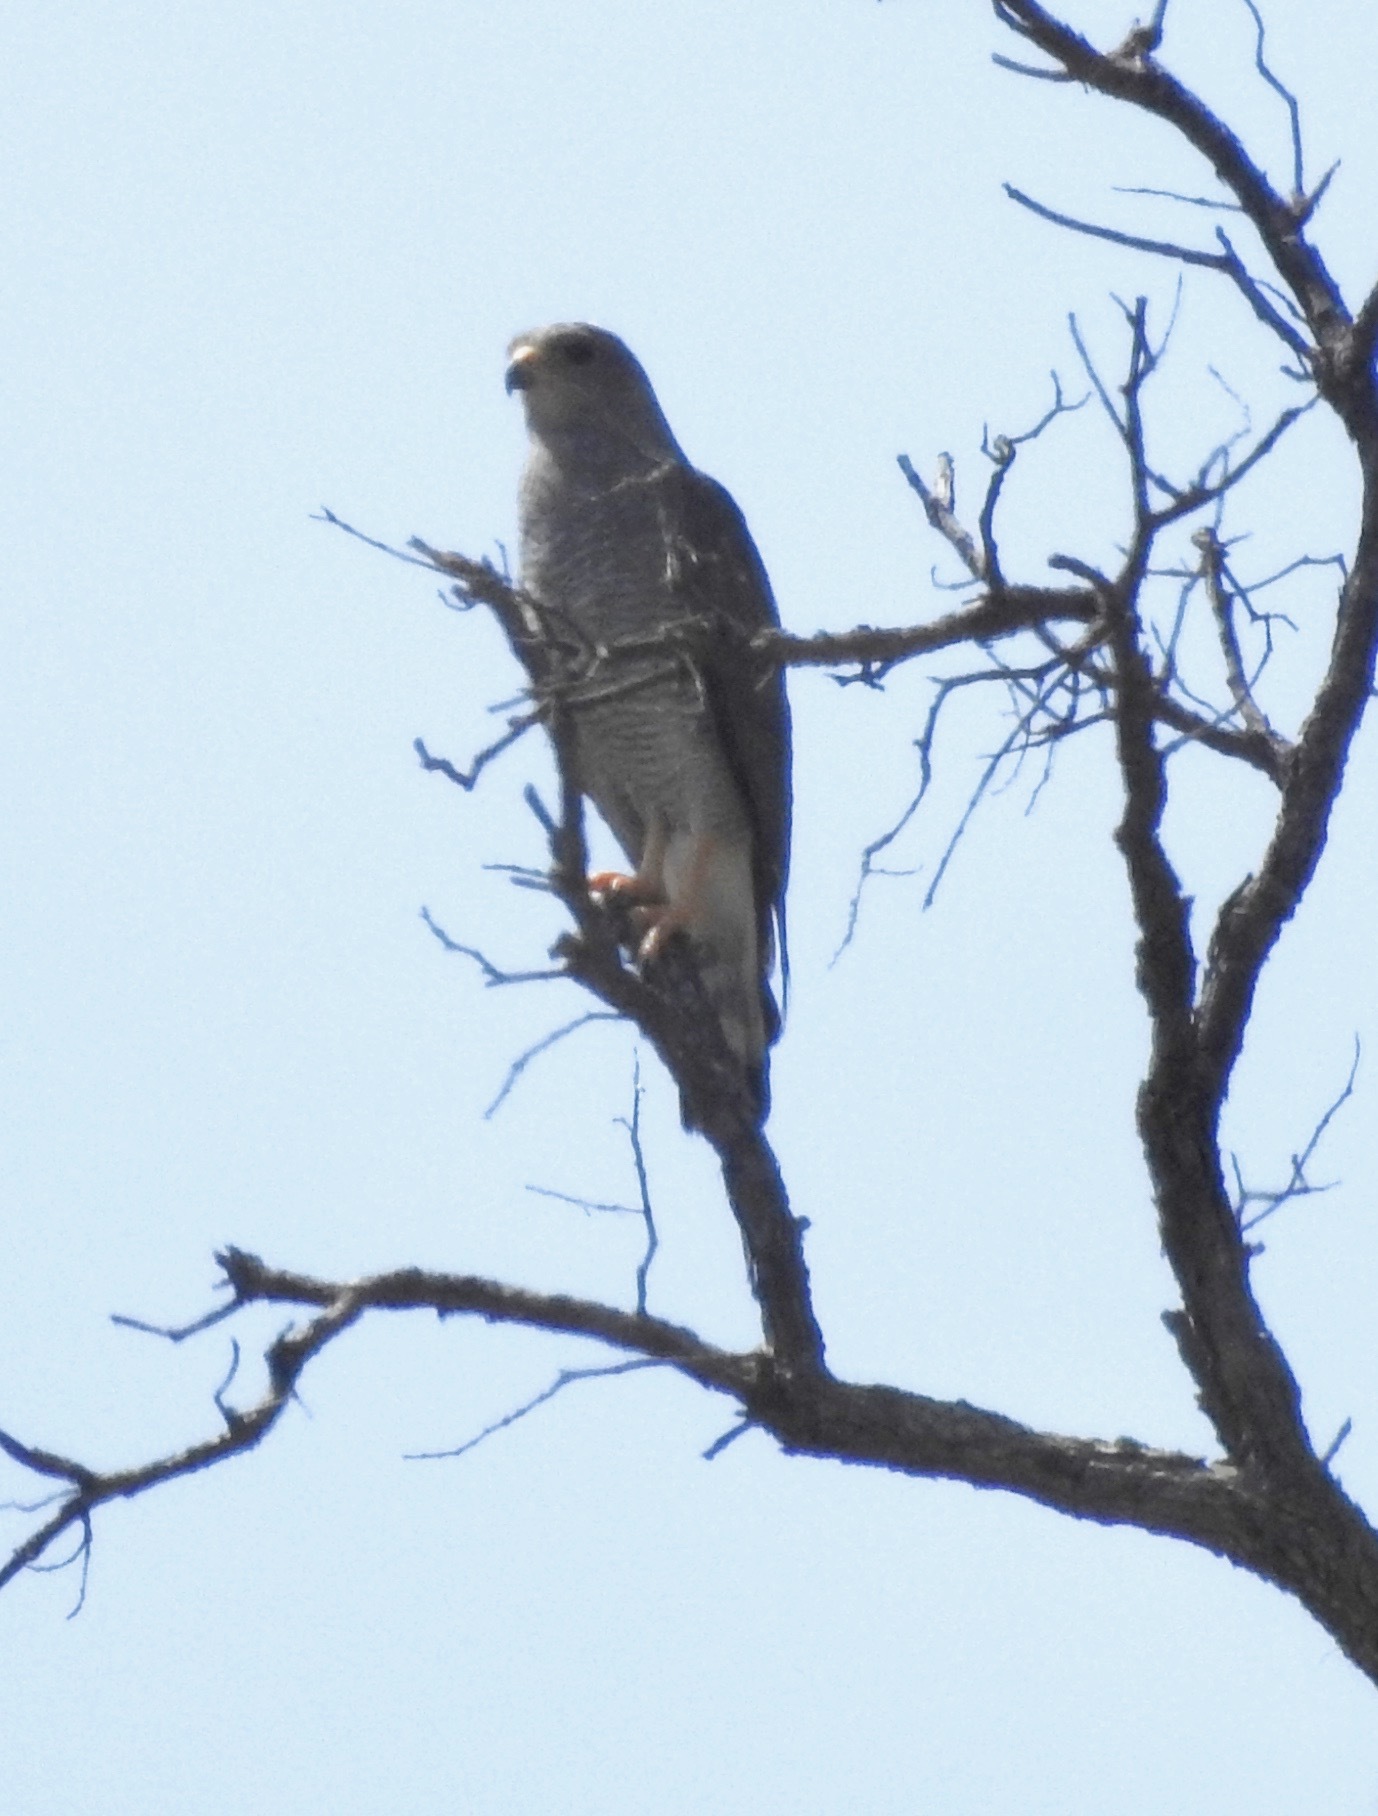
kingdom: Animalia
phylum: Chordata
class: Aves
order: Accipitriformes
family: Accipitridae
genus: Buteo
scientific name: Buteo nitidus
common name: Grey-lined hawk
